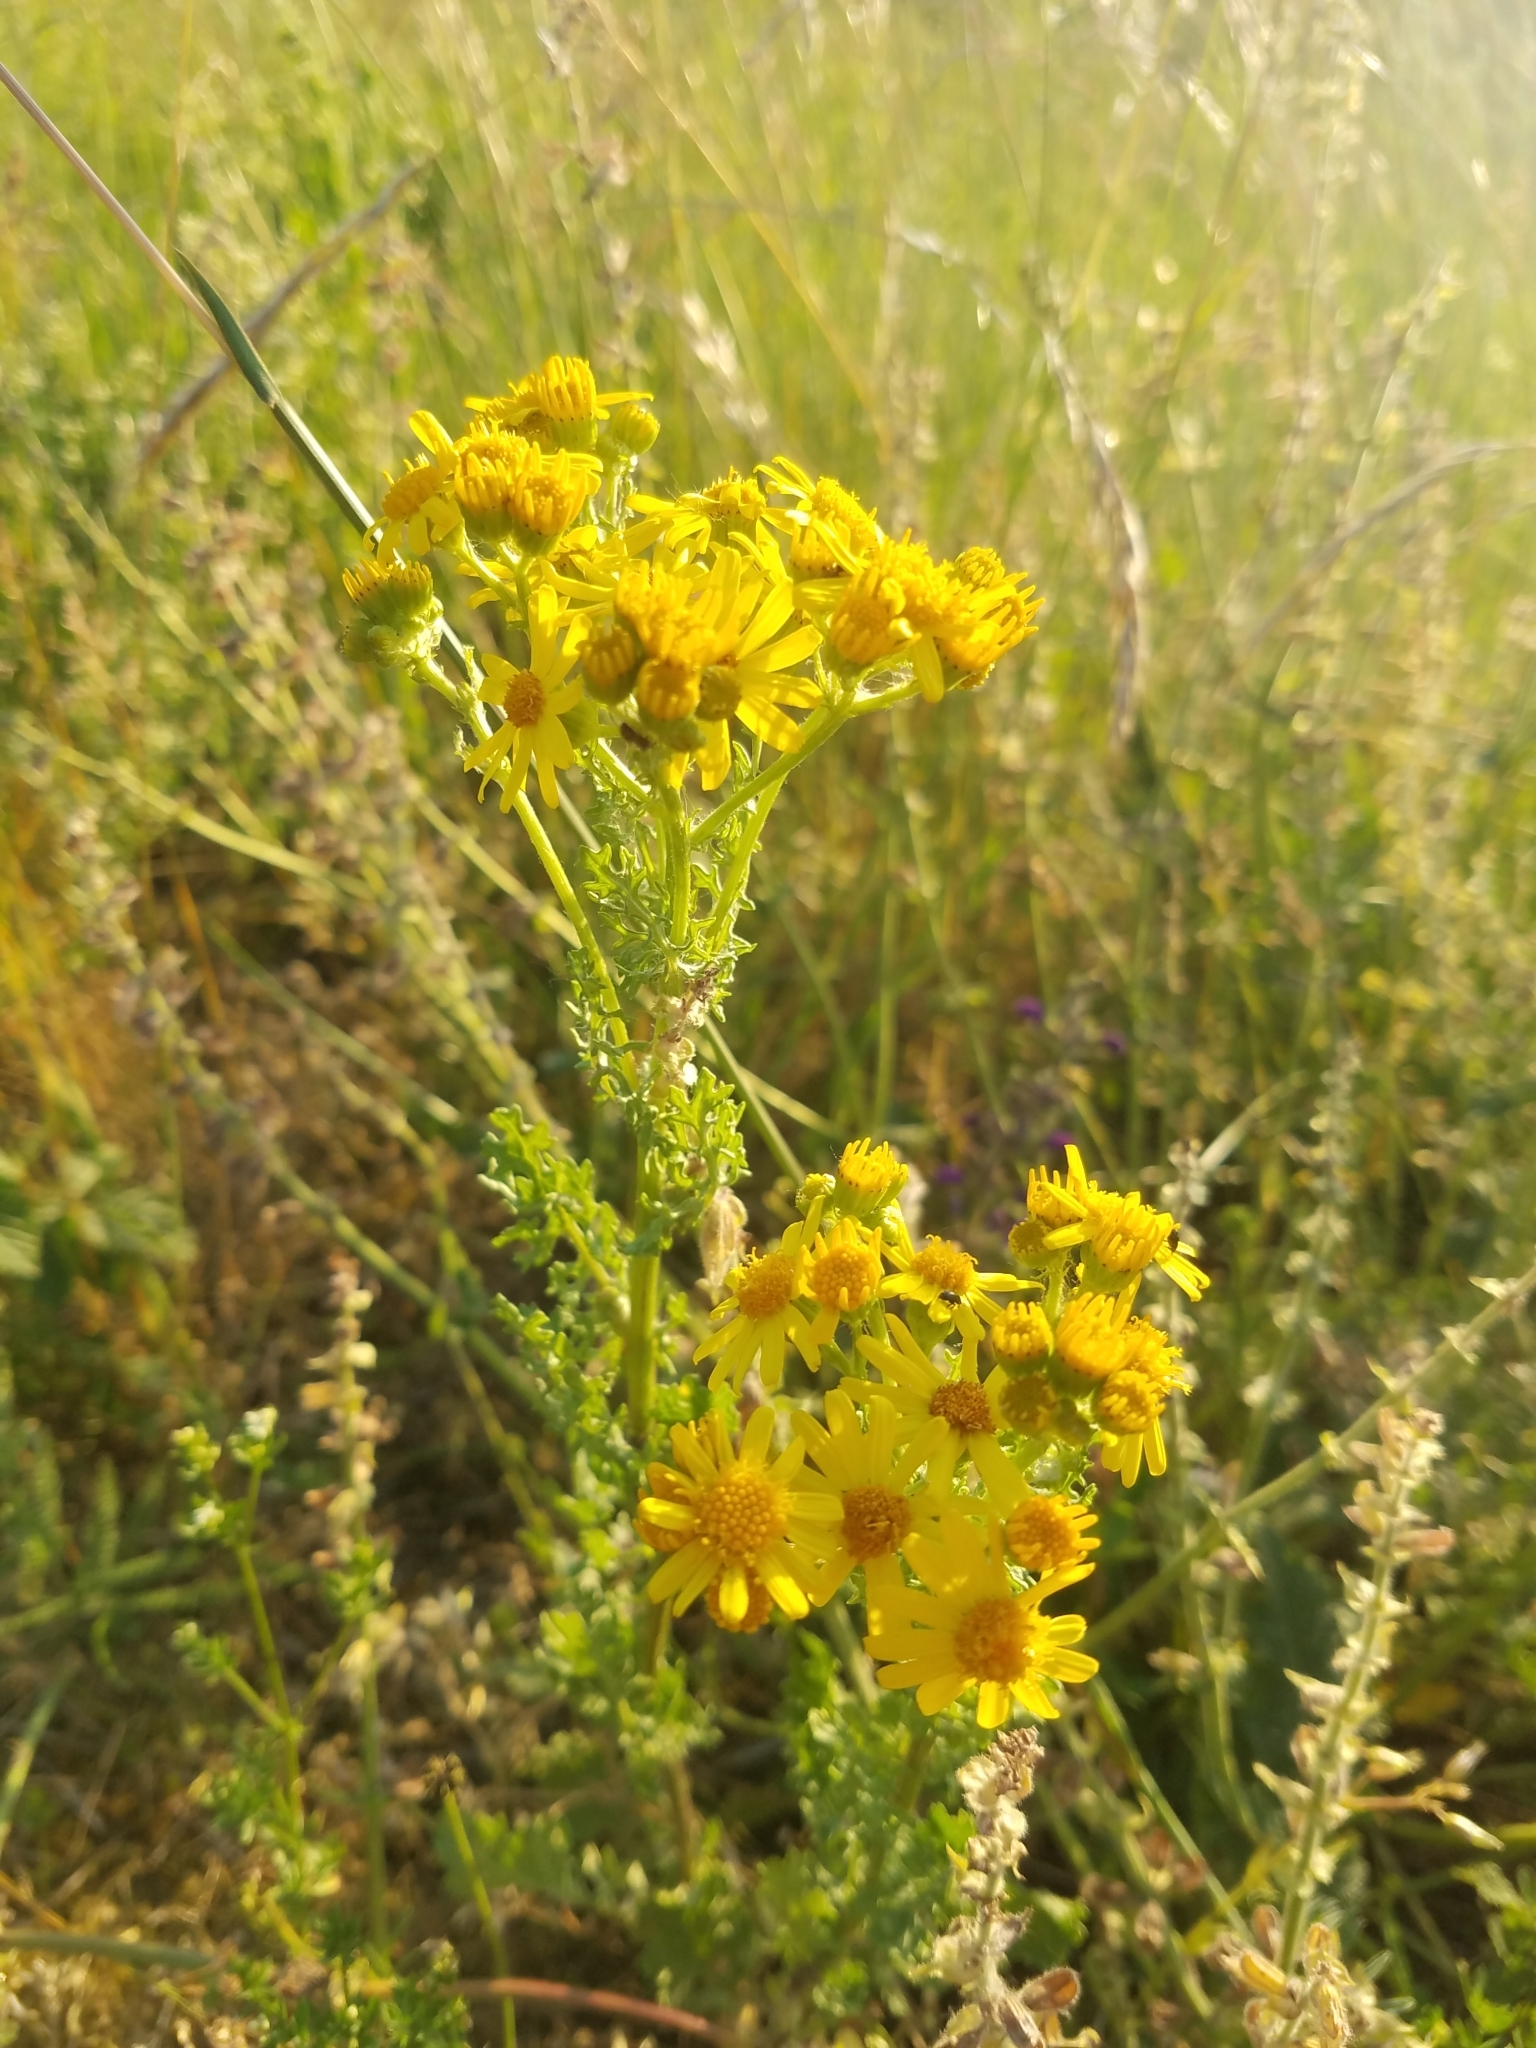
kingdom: Plantae
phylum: Tracheophyta
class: Magnoliopsida
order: Asterales
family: Asteraceae
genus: Jacobaea
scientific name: Jacobaea vulgaris
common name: Stinking willie
